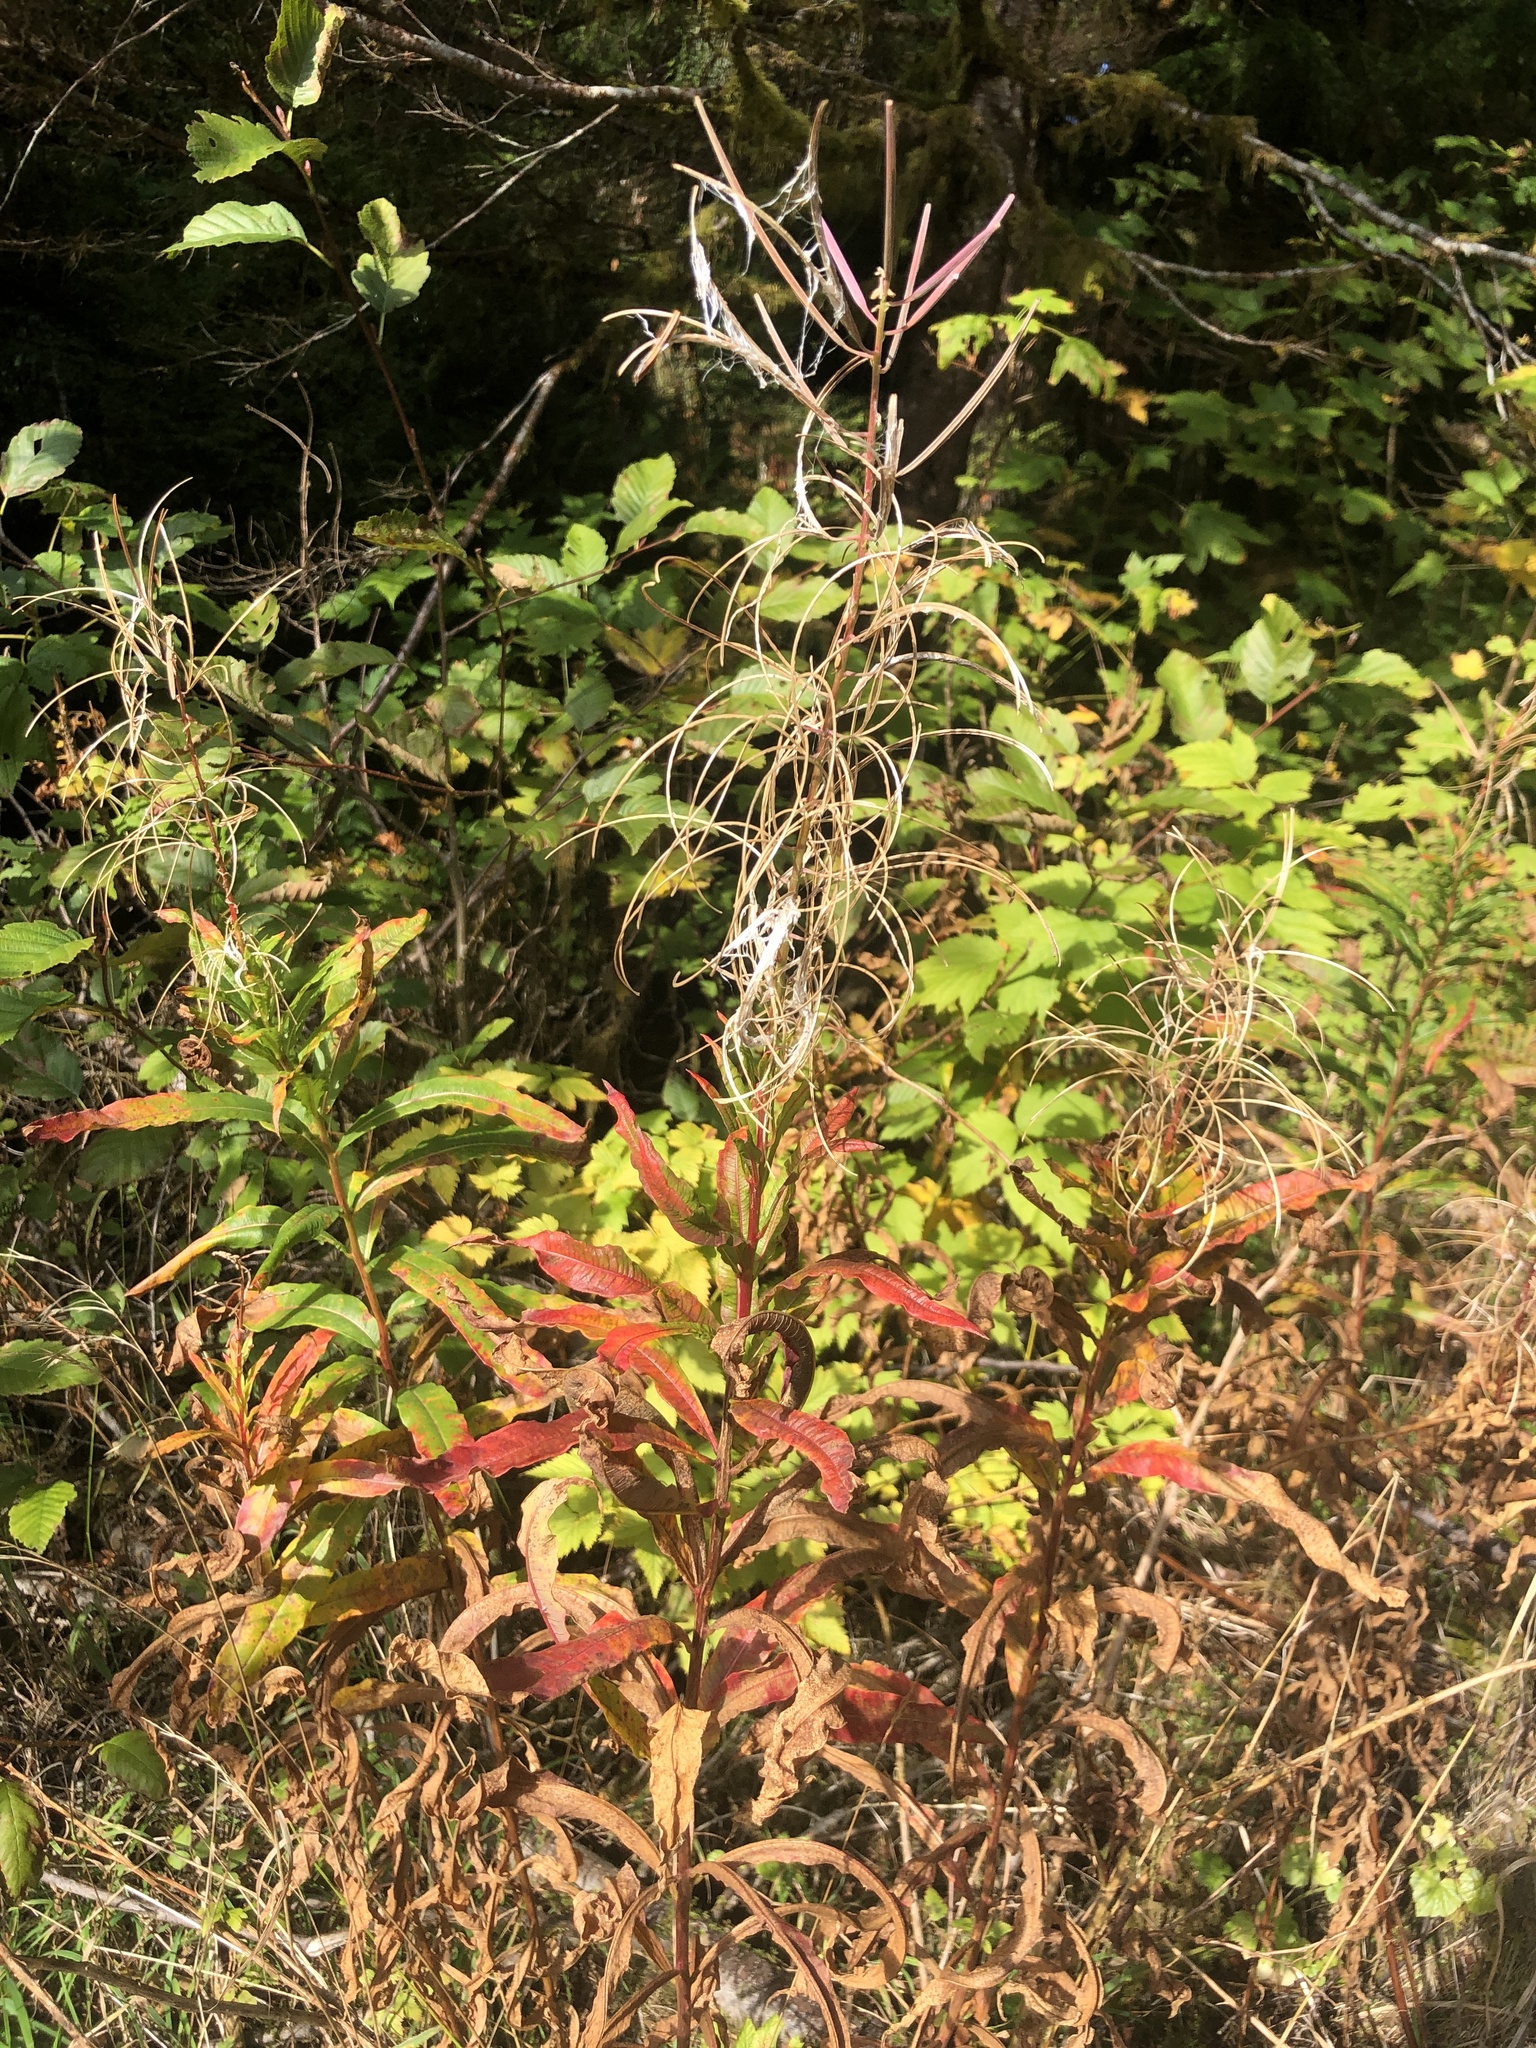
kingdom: Plantae
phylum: Tracheophyta
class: Magnoliopsida
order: Myrtales
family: Onagraceae
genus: Chamaenerion
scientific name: Chamaenerion angustifolium
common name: Fireweed
